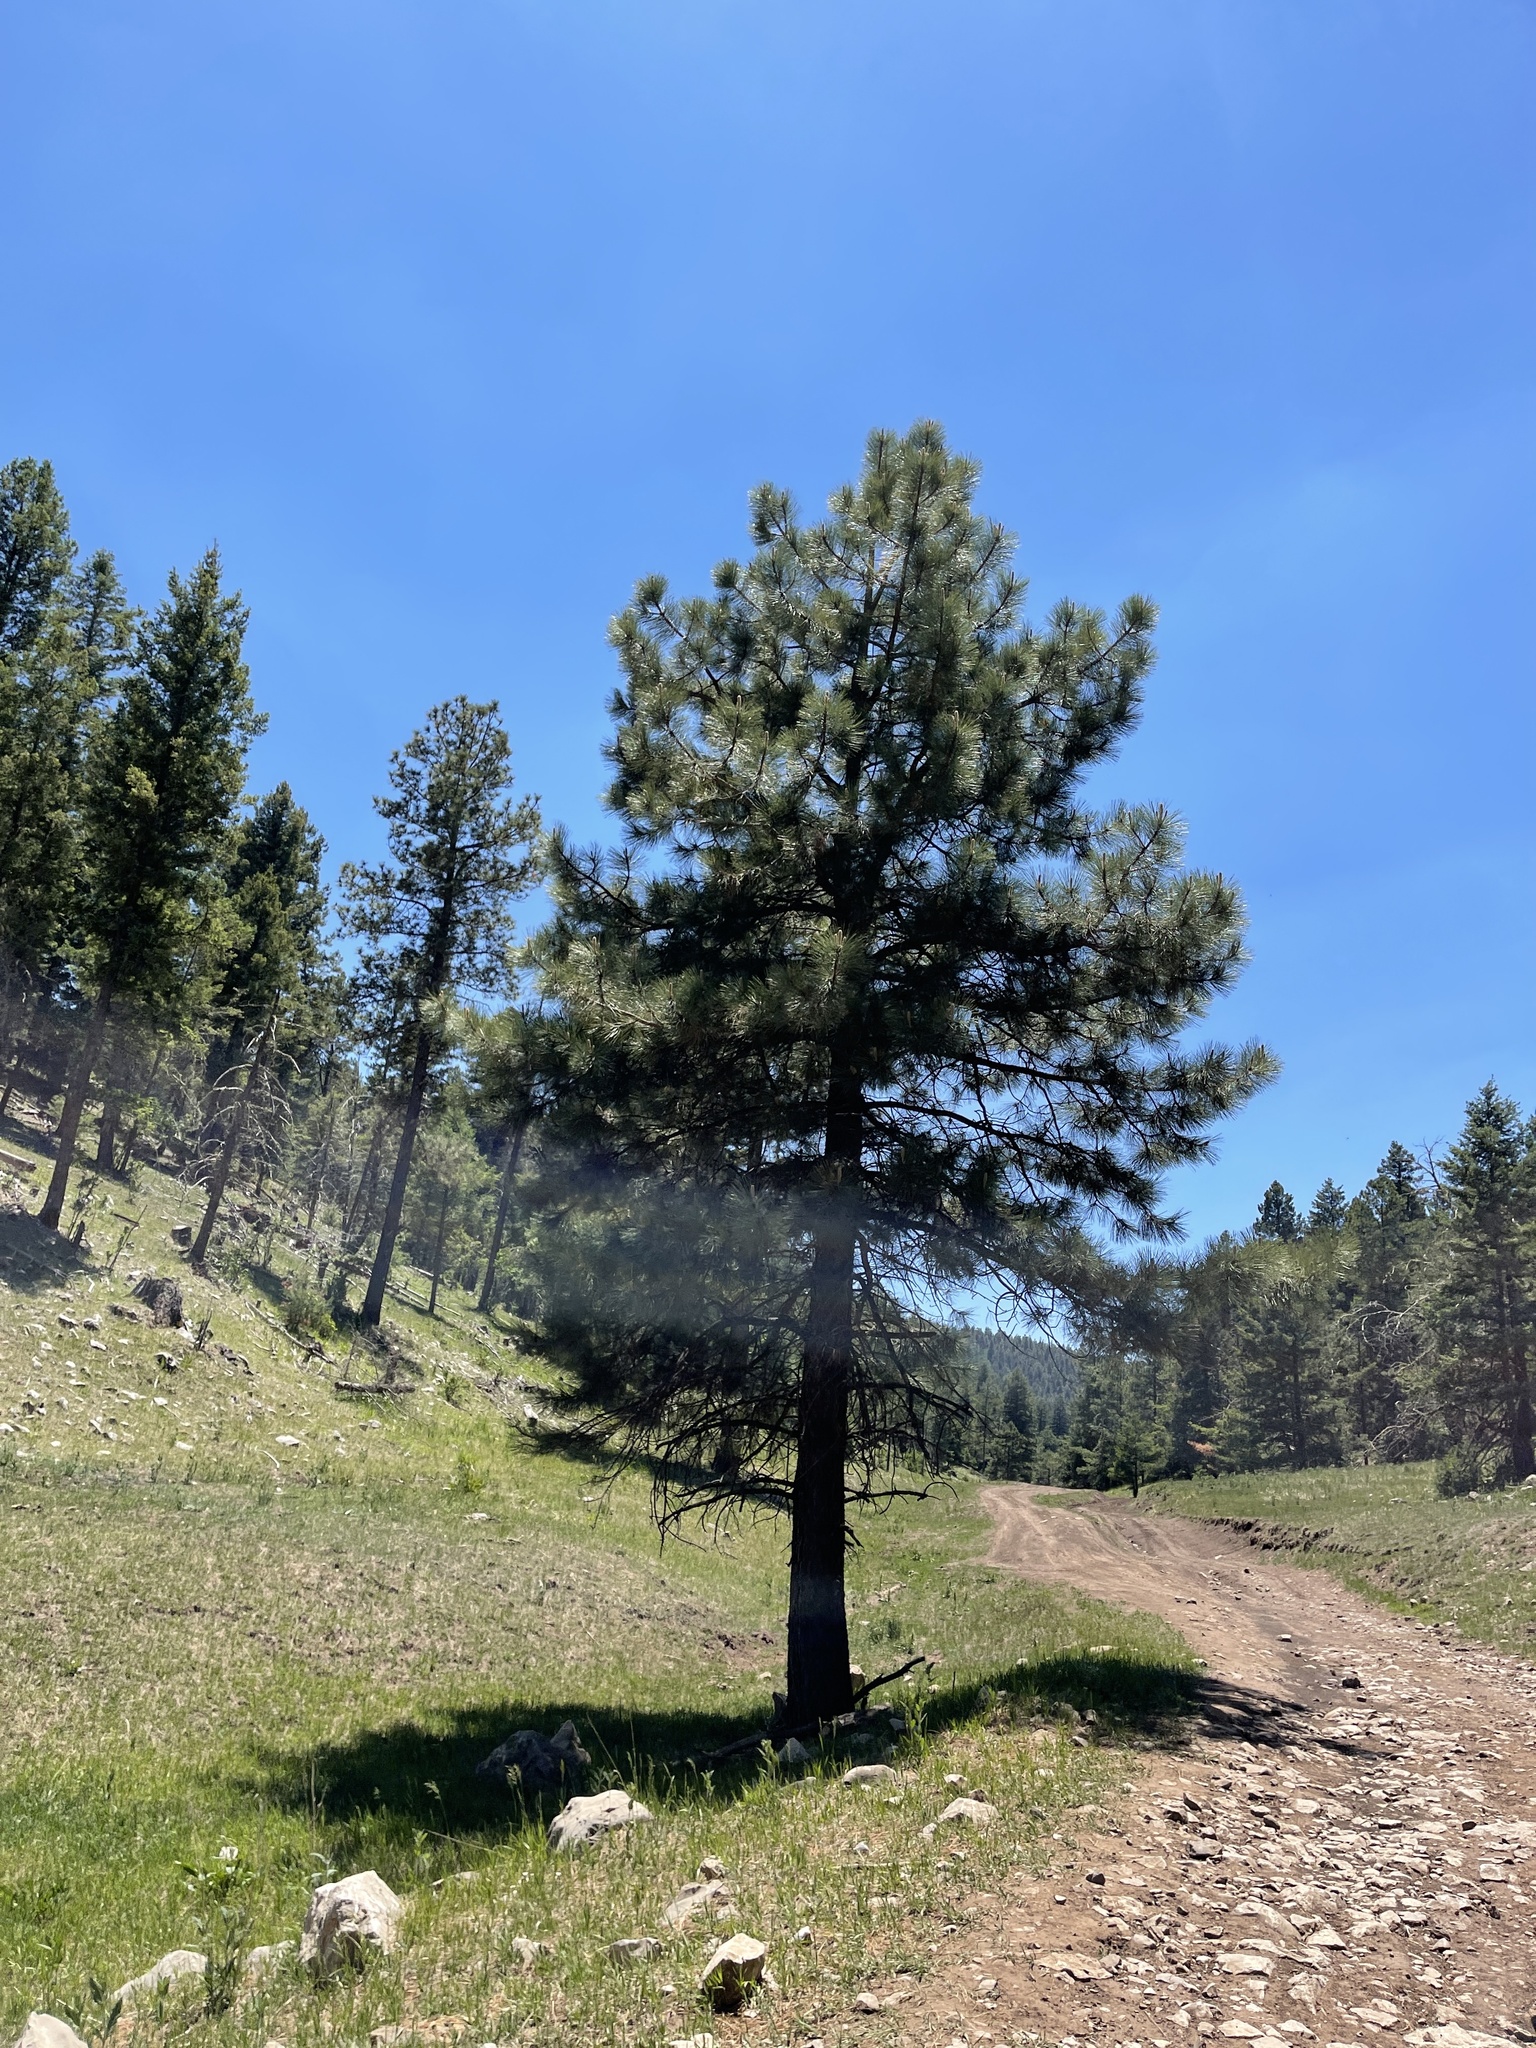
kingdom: Plantae
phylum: Tracheophyta
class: Pinopsida
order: Pinales
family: Pinaceae
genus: Pinus
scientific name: Pinus ponderosa
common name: Western yellow-pine
